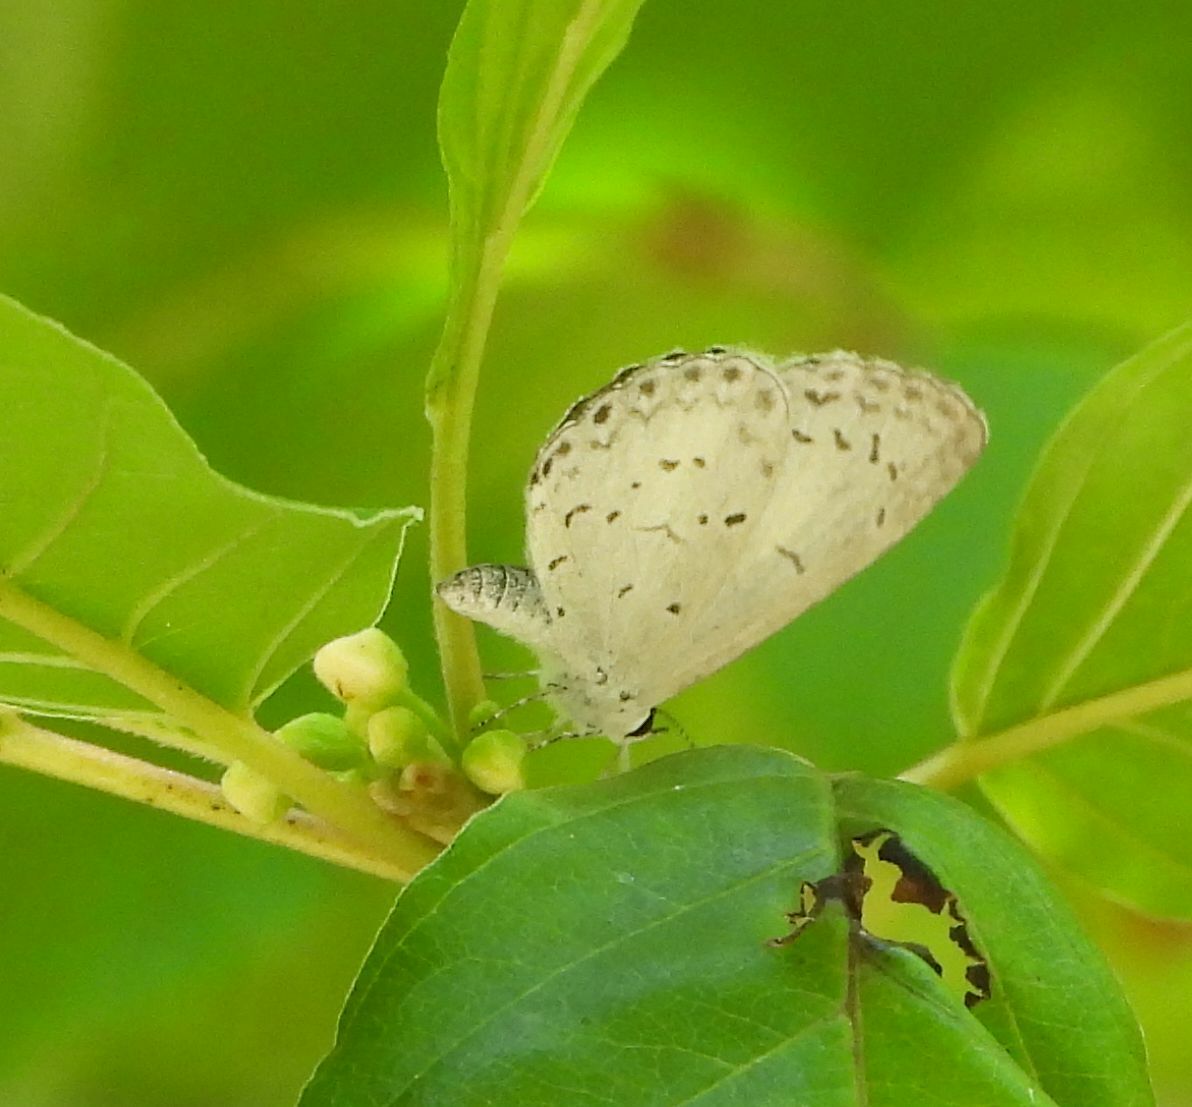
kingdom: Animalia
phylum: Arthropoda
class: Insecta
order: Lepidoptera
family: Lycaenidae
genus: Celastrina
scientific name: Celastrina lucia
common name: Lucia azure
